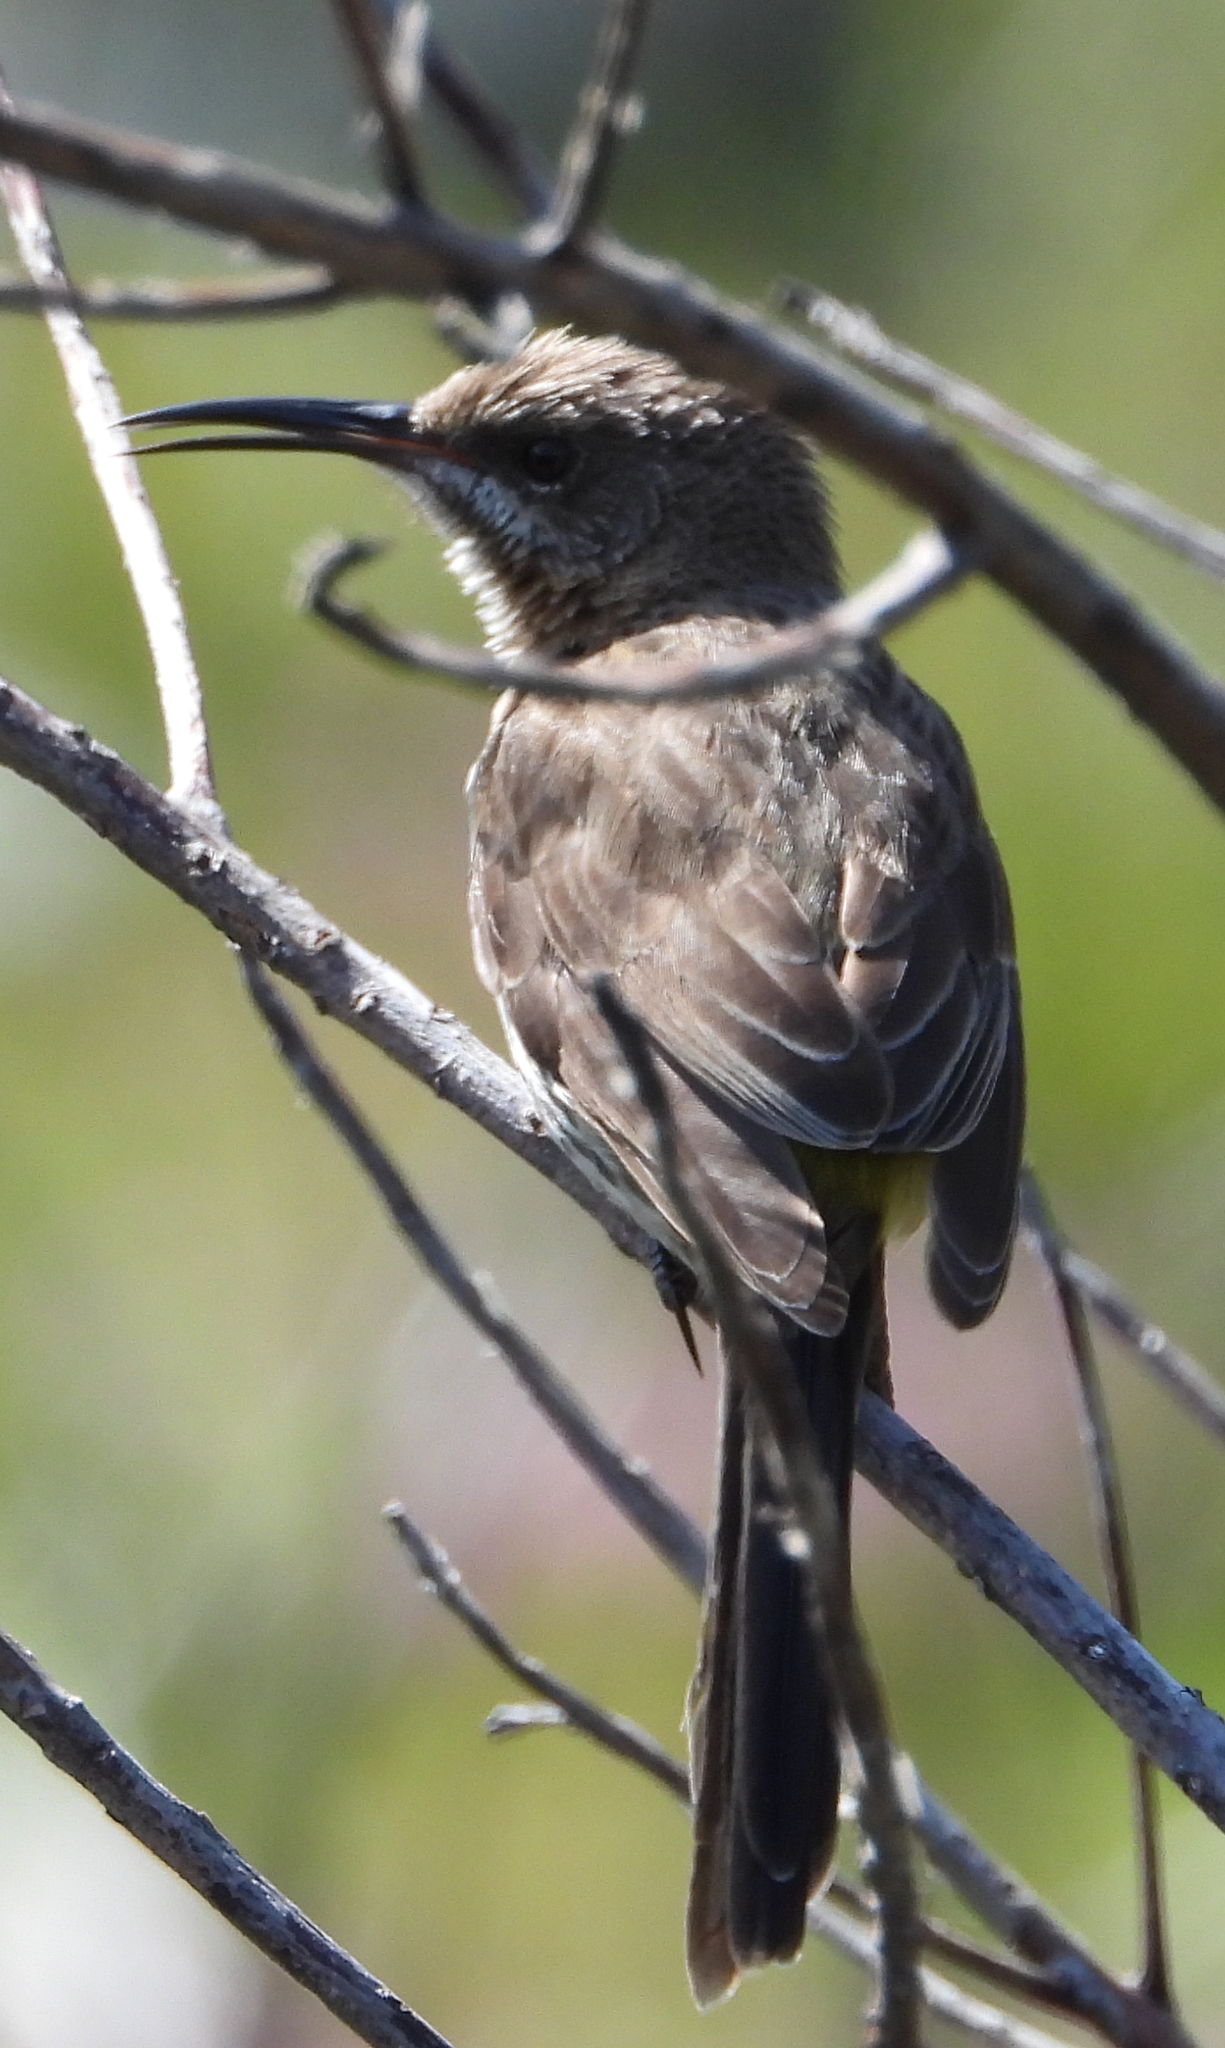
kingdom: Animalia
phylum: Chordata
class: Aves
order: Passeriformes
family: Promeropidae
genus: Promerops
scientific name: Promerops cafer
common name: Cape sugarbird
